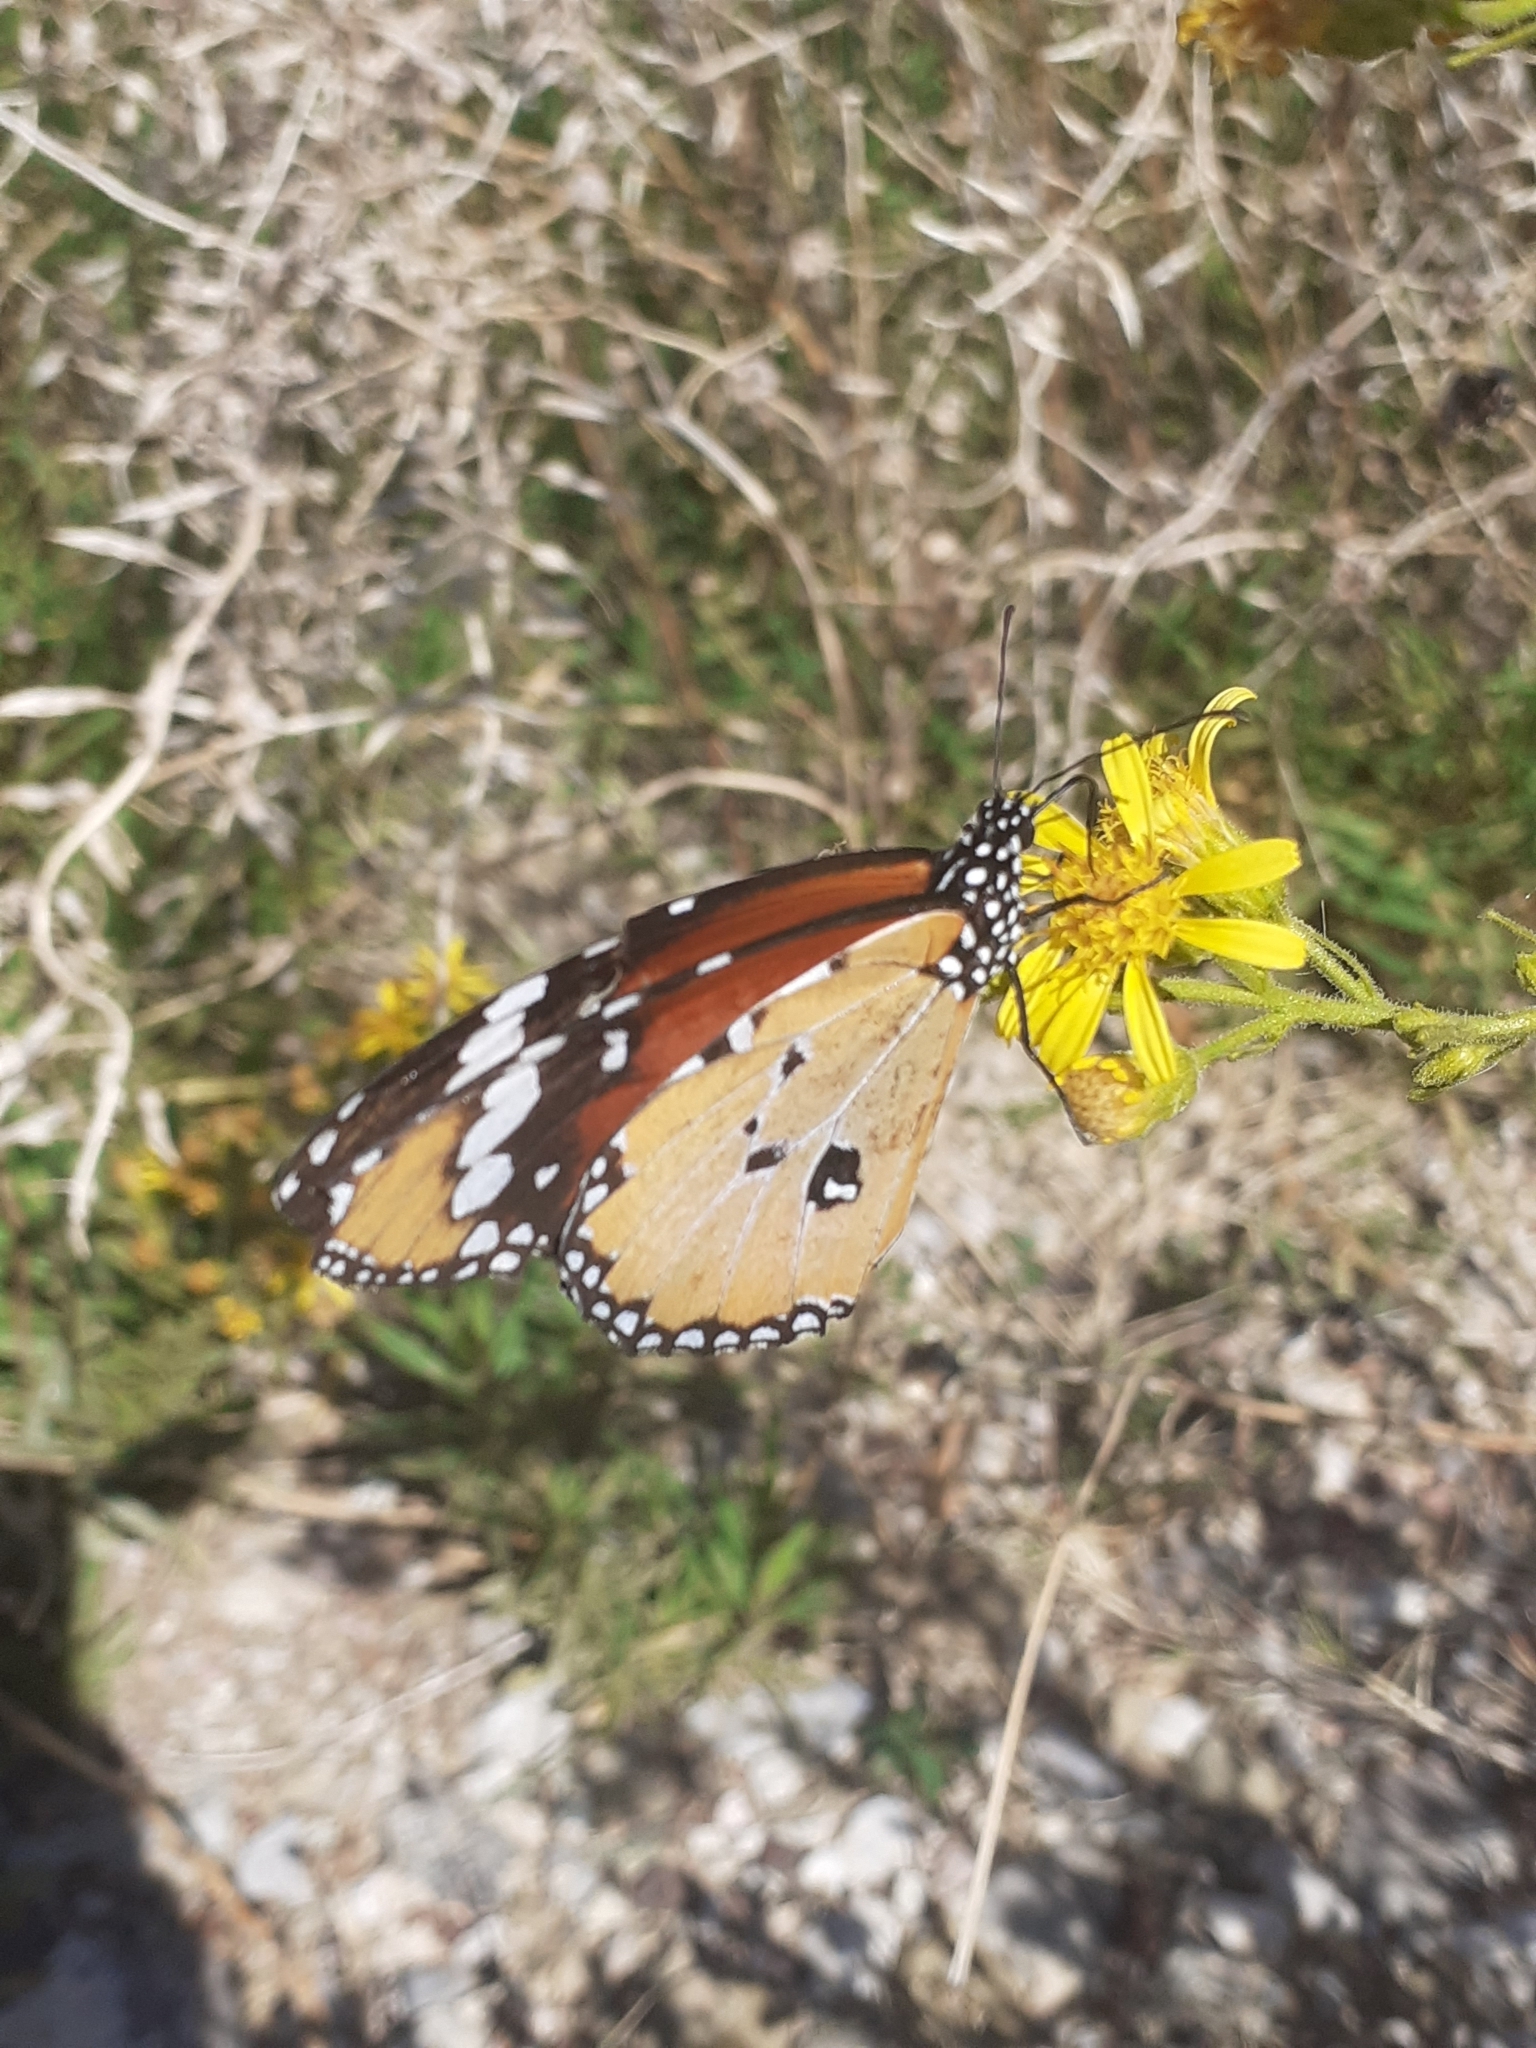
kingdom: Animalia
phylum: Arthropoda
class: Insecta
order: Lepidoptera
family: Nymphalidae
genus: Danaus
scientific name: Danaus chrysippus
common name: Plain tiger
